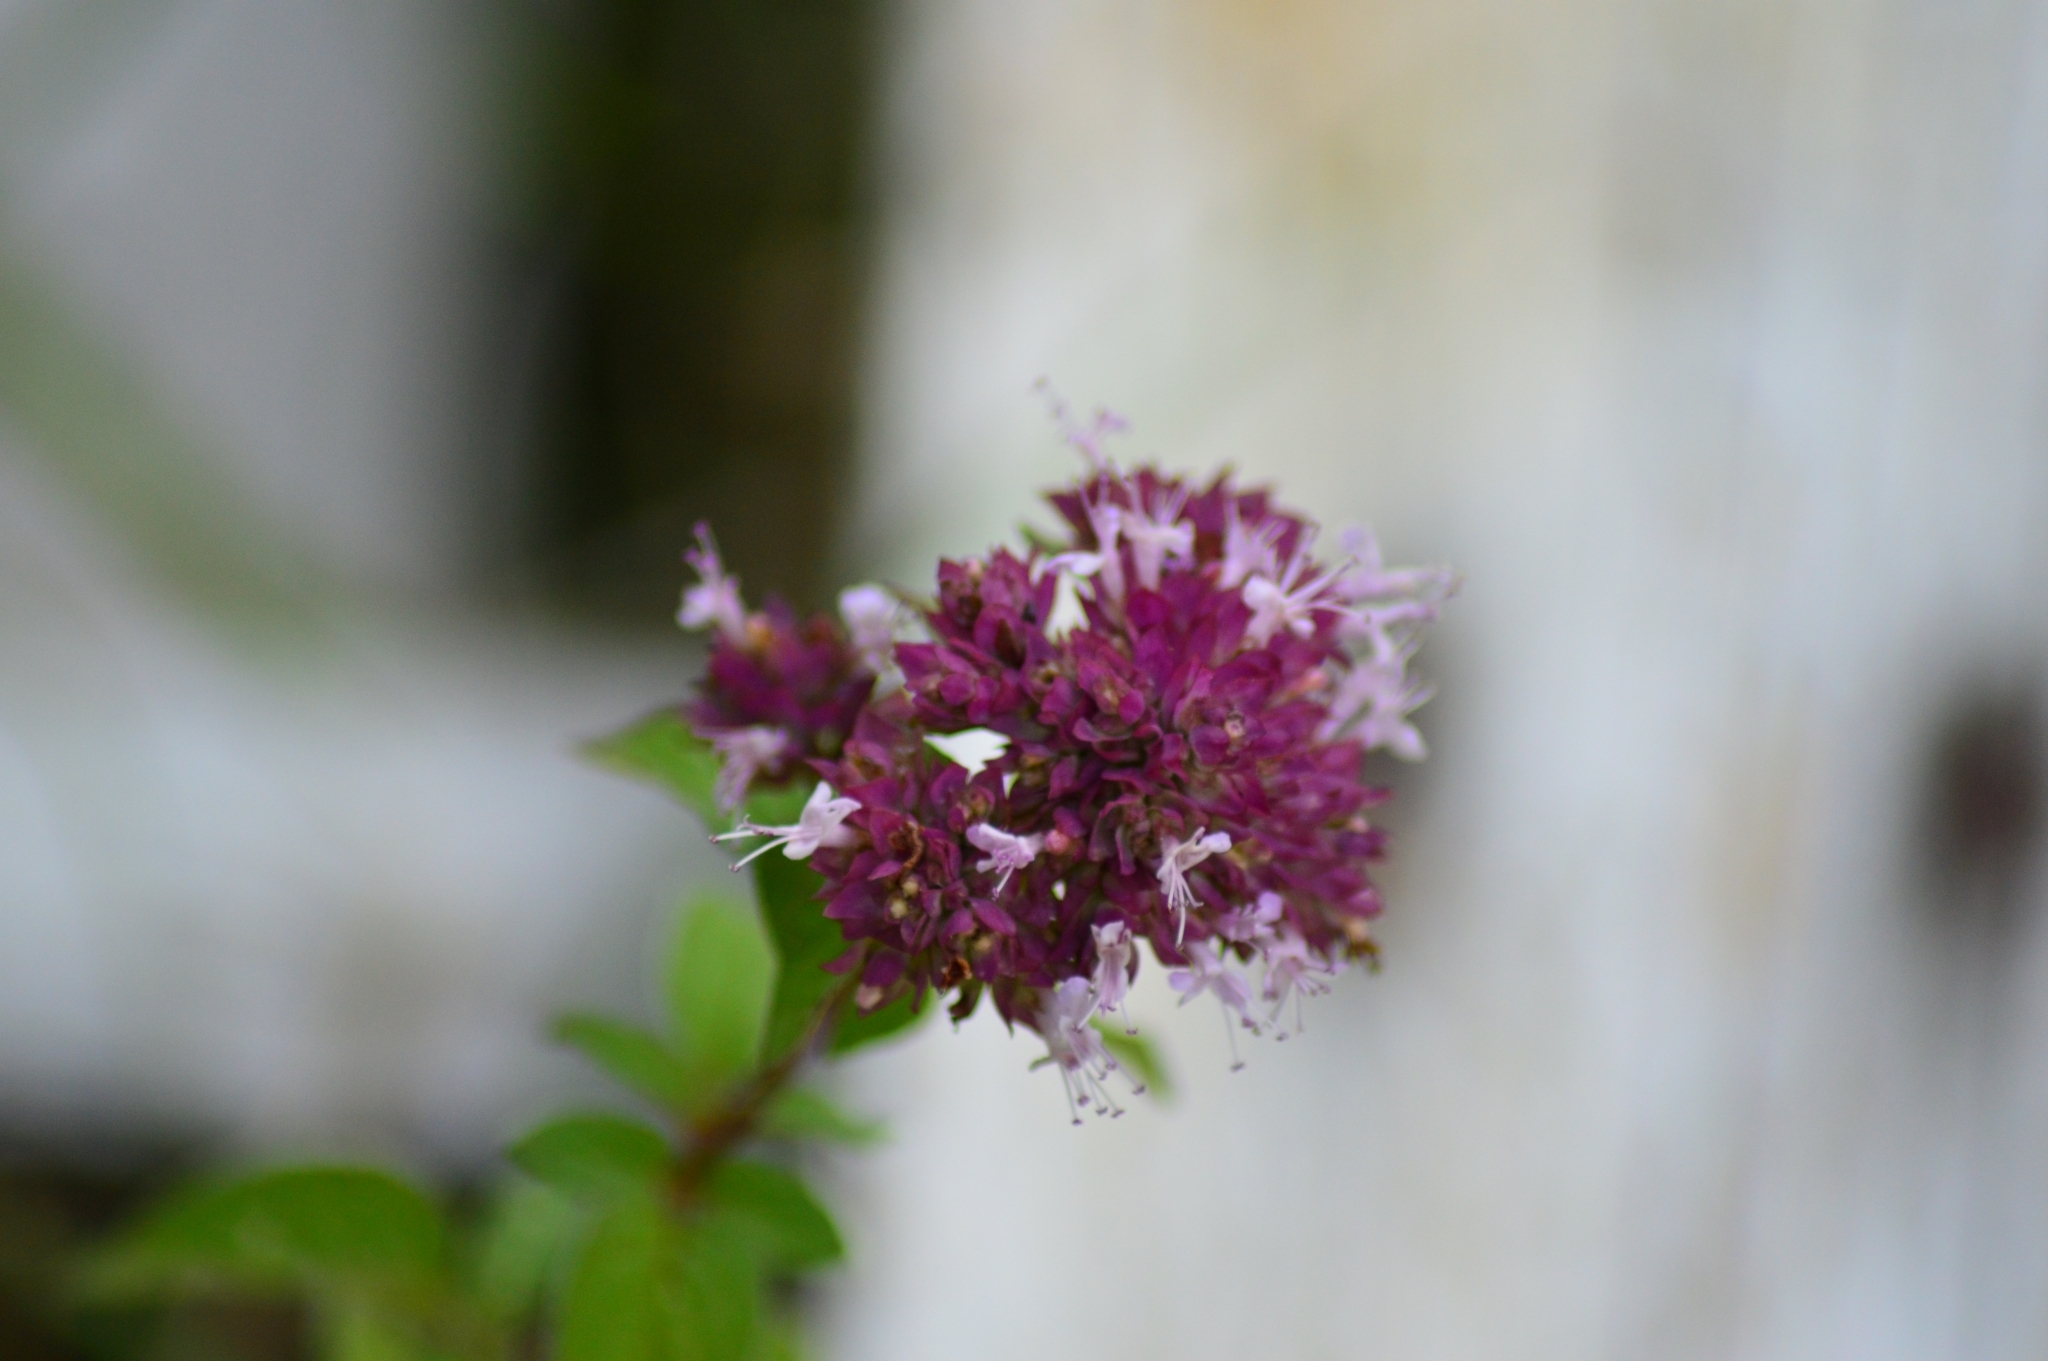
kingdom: Plantae
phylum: Tracheophyta
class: Magnoliopsida
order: Lamiales
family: Lamiaceae
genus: Origanum
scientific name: Origanum vulgare
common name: Wild marjoram
